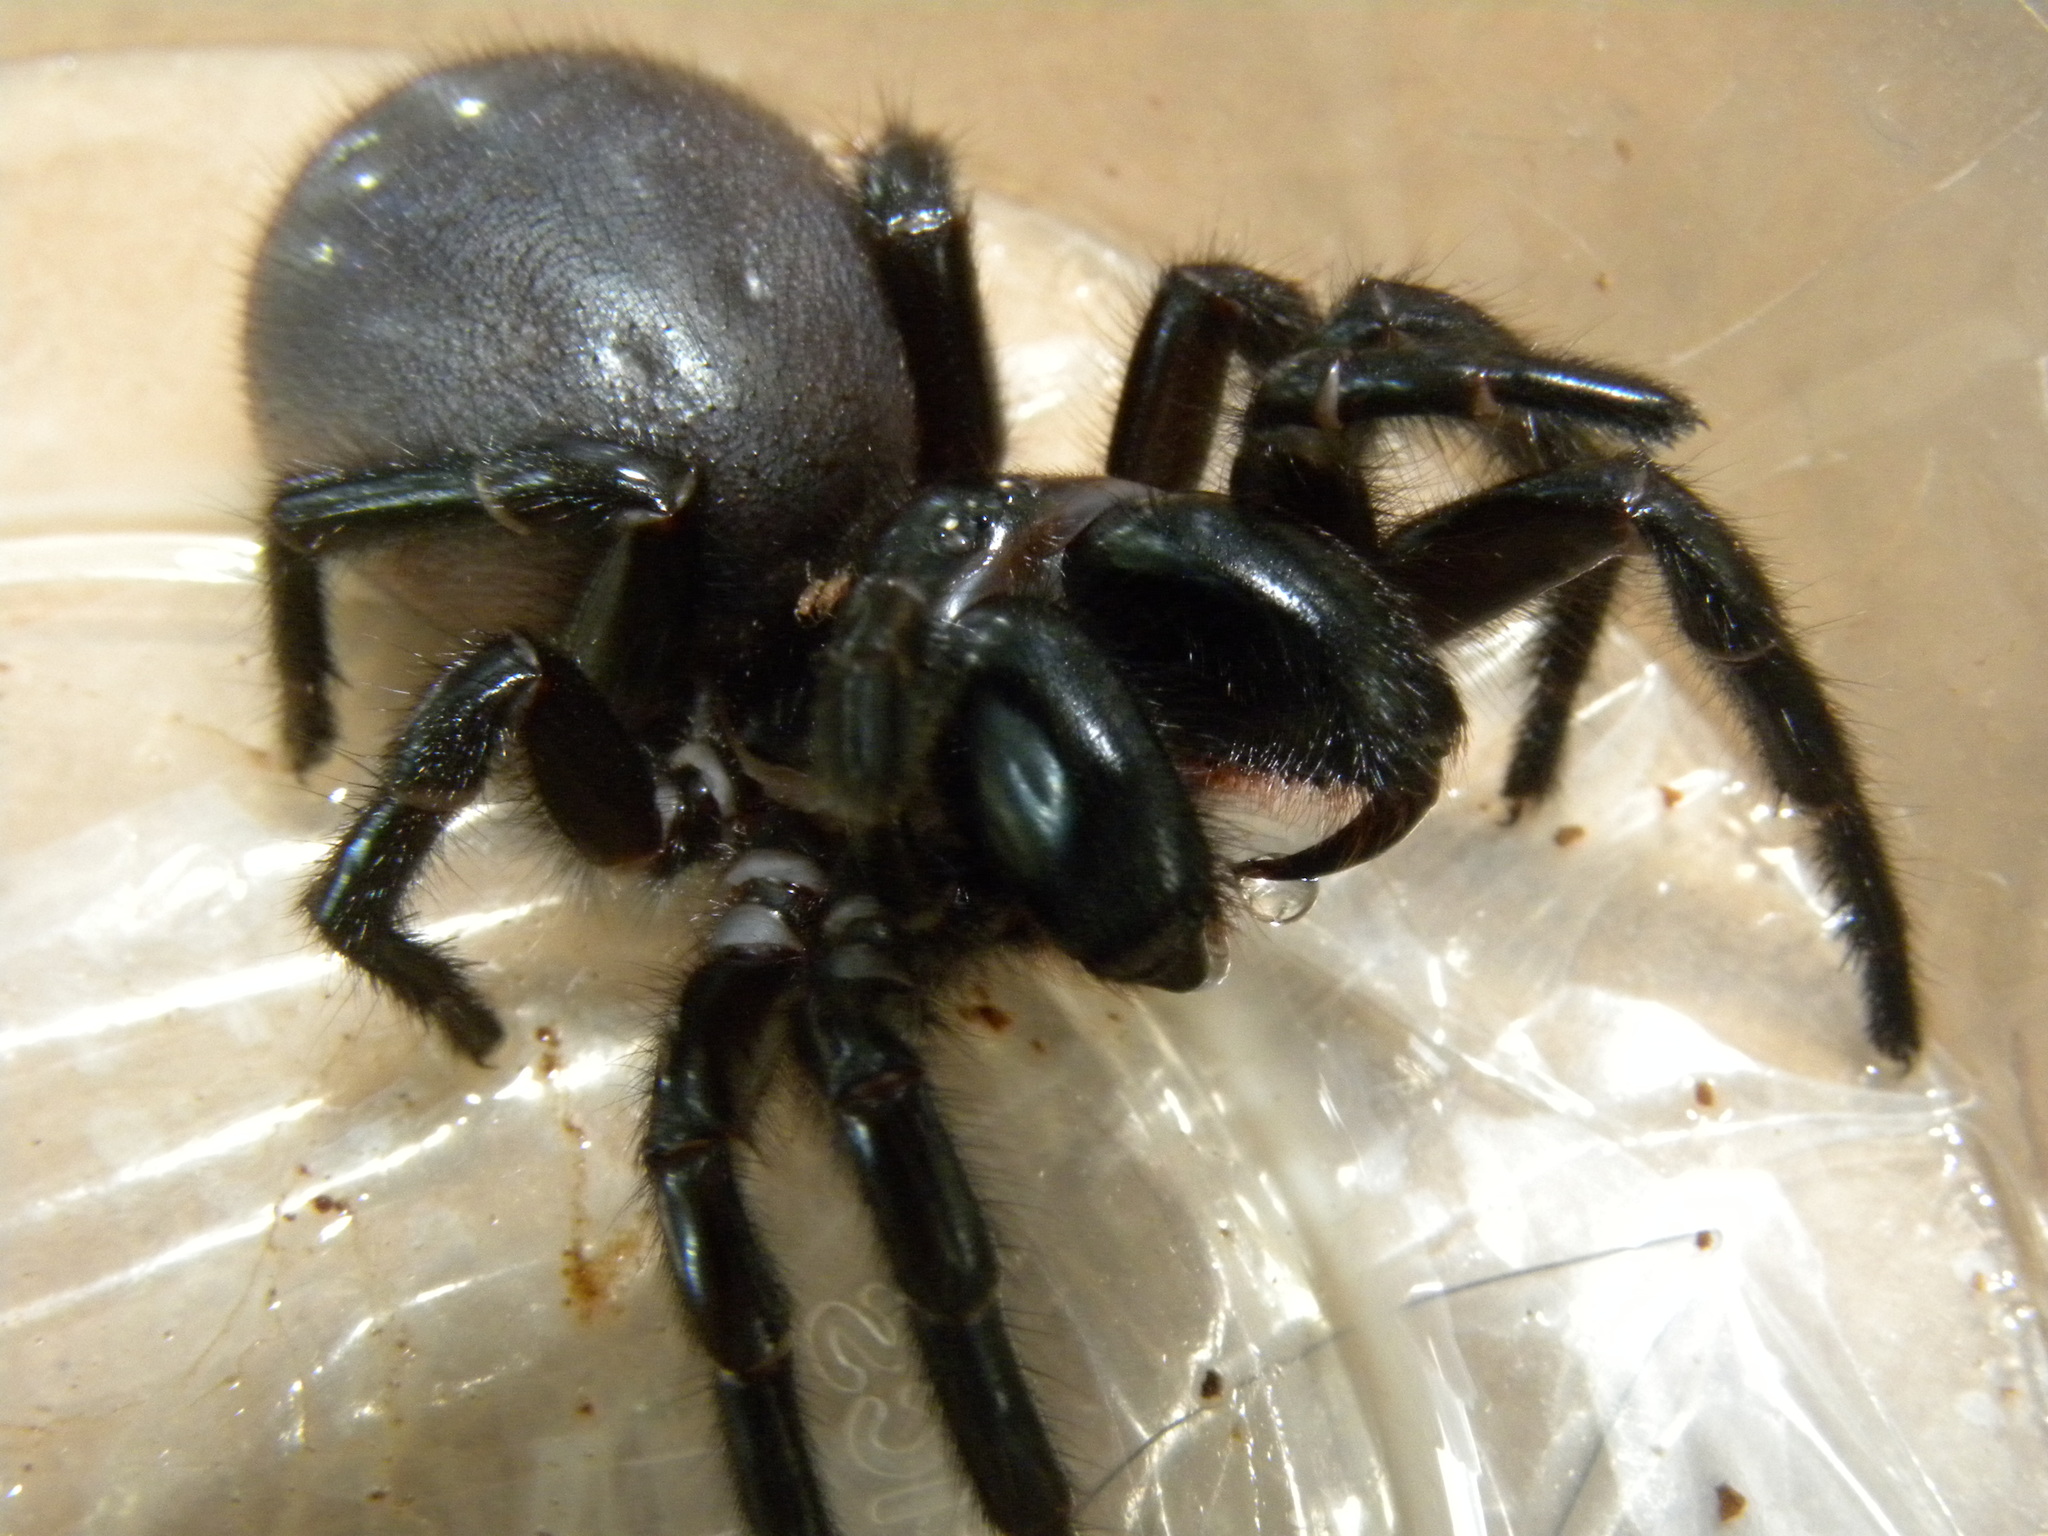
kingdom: Animalia
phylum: Arthropoda
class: Arachnida
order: Araneae
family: Atracidae
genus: Hadronyche
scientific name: Hadronyche cerberea
